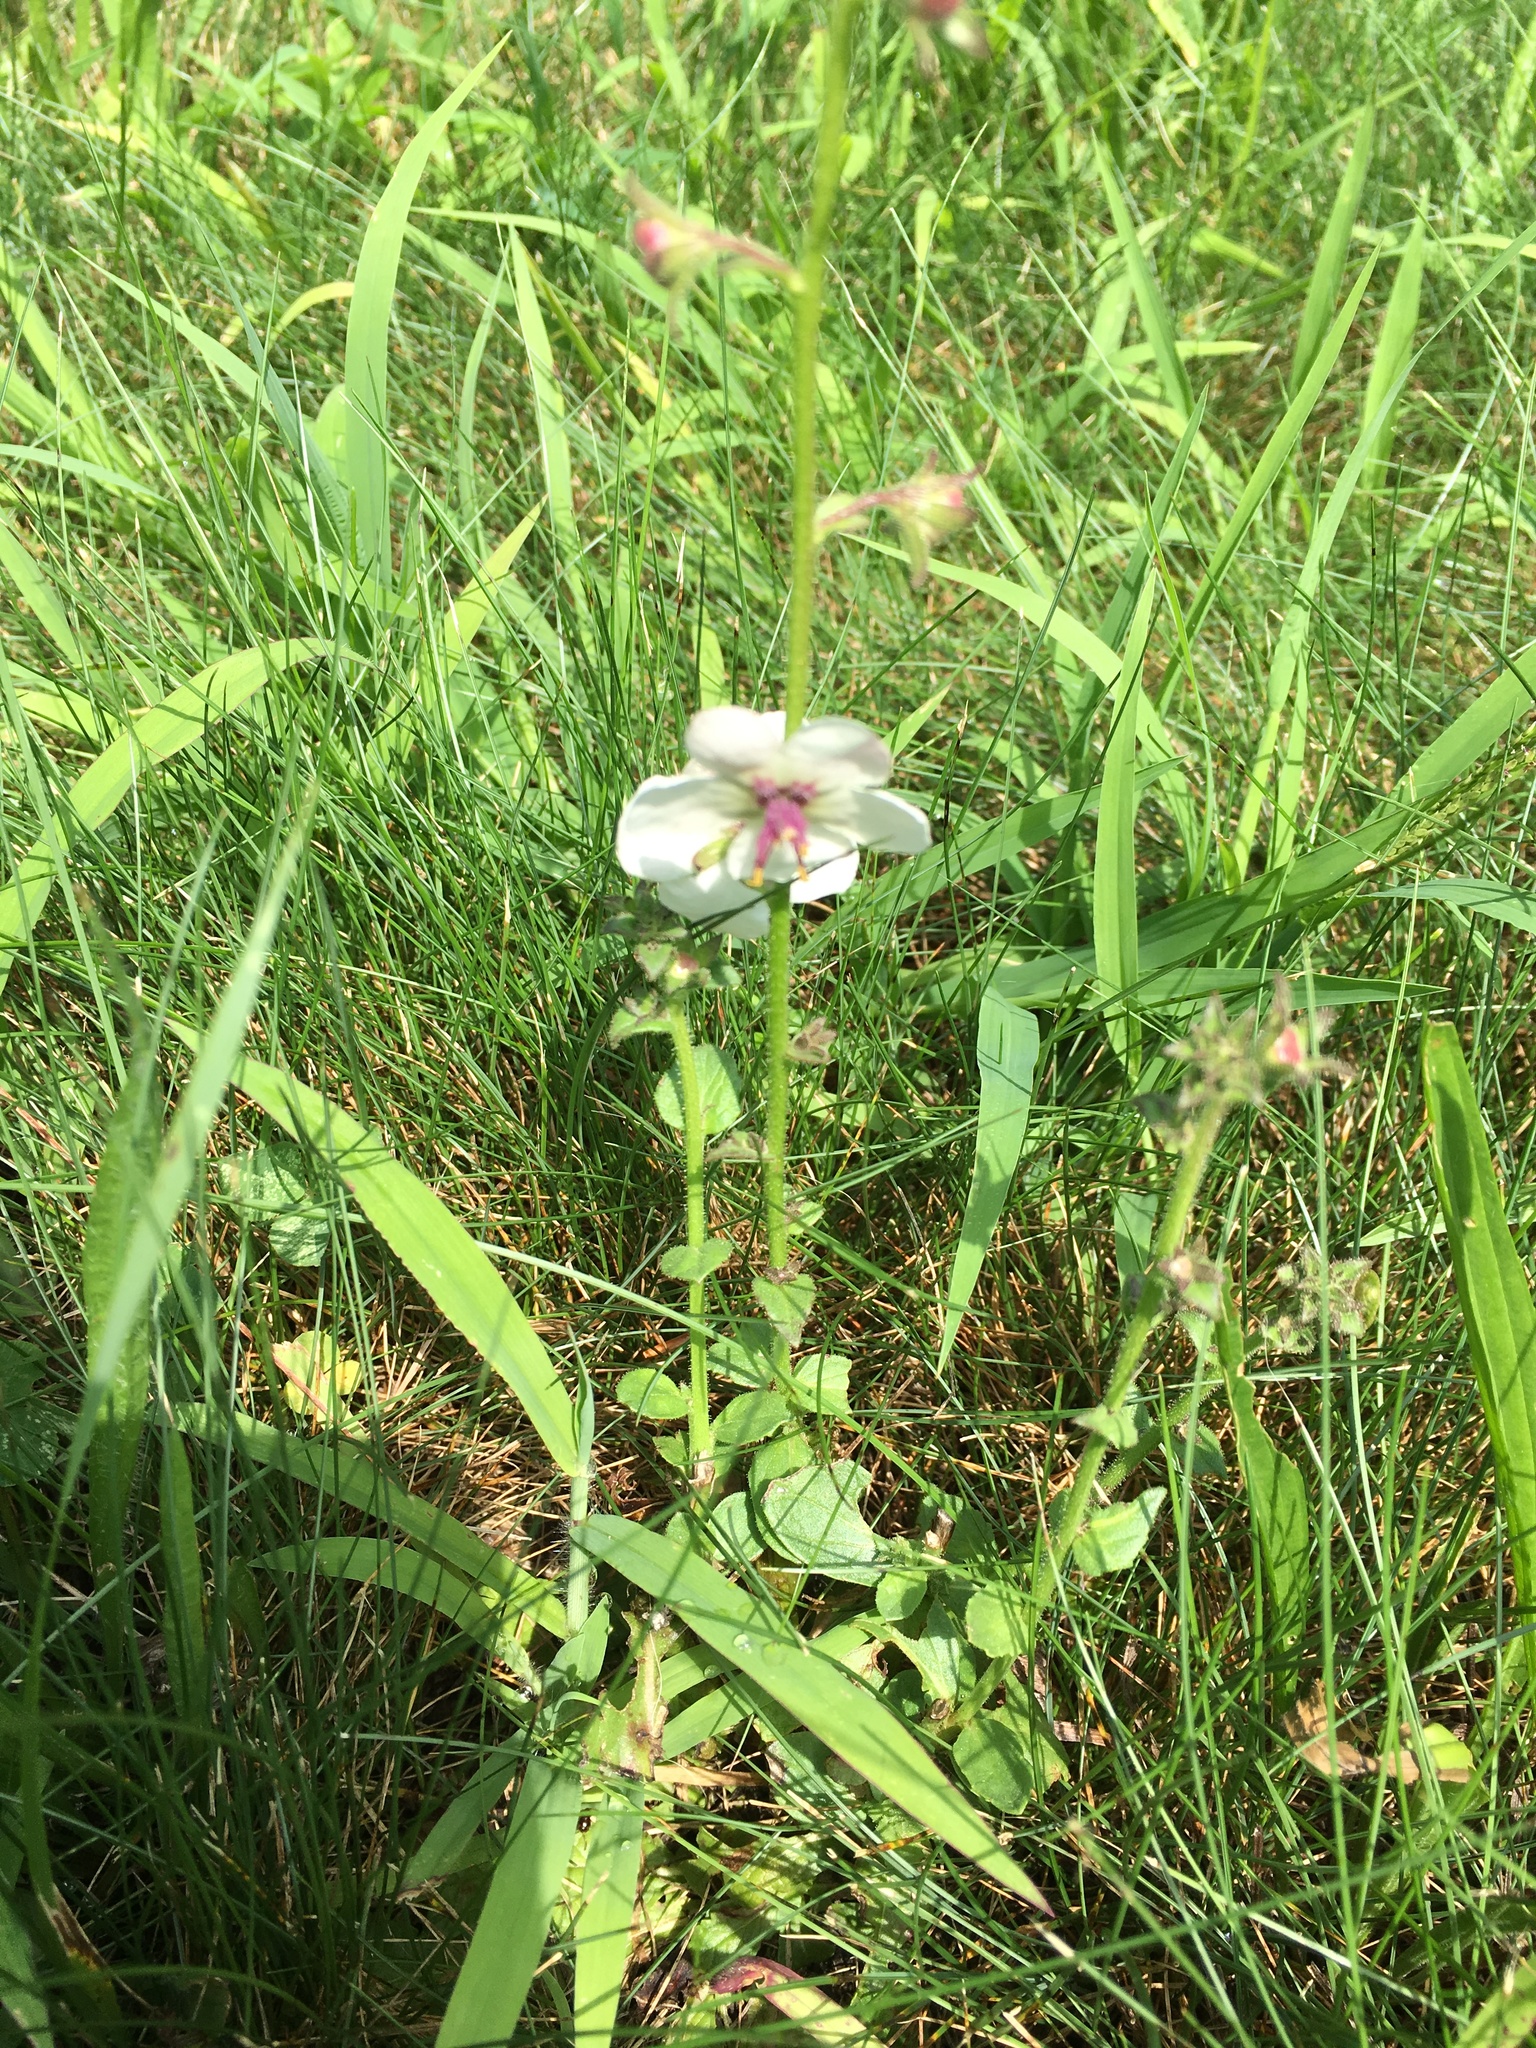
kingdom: Plantae
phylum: Tracheophyta
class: Magnoliopsida
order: Lamiales
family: Scrophulariaceae
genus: Verbascum
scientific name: Verbascum blattaria
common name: Moth mullein
